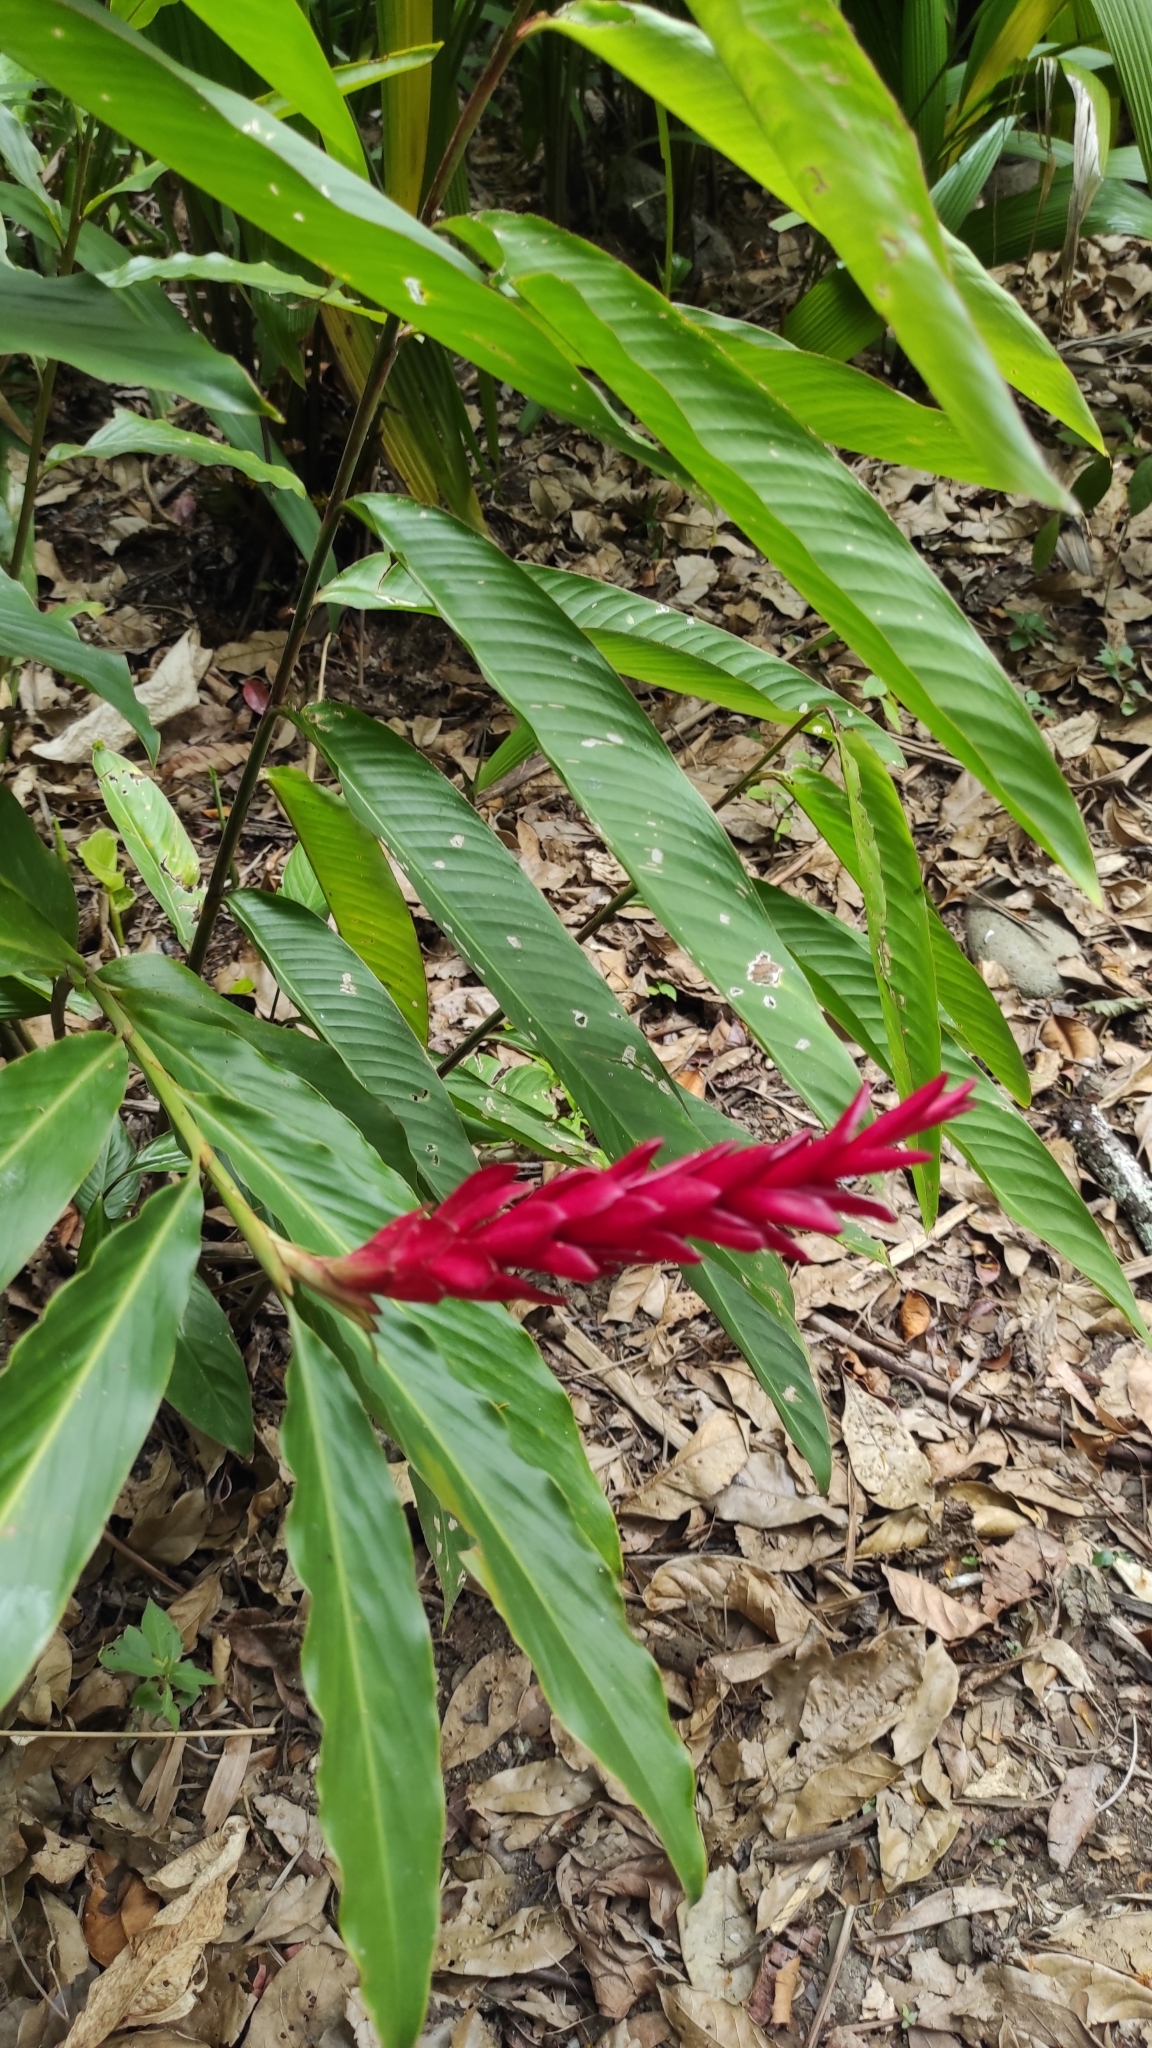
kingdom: Plantae
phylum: Tracheophyta
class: Liliopsida
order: Zingiberales
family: Zingiberaceae
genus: Alpinia
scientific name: Alpinia purpurata
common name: Red ginger
